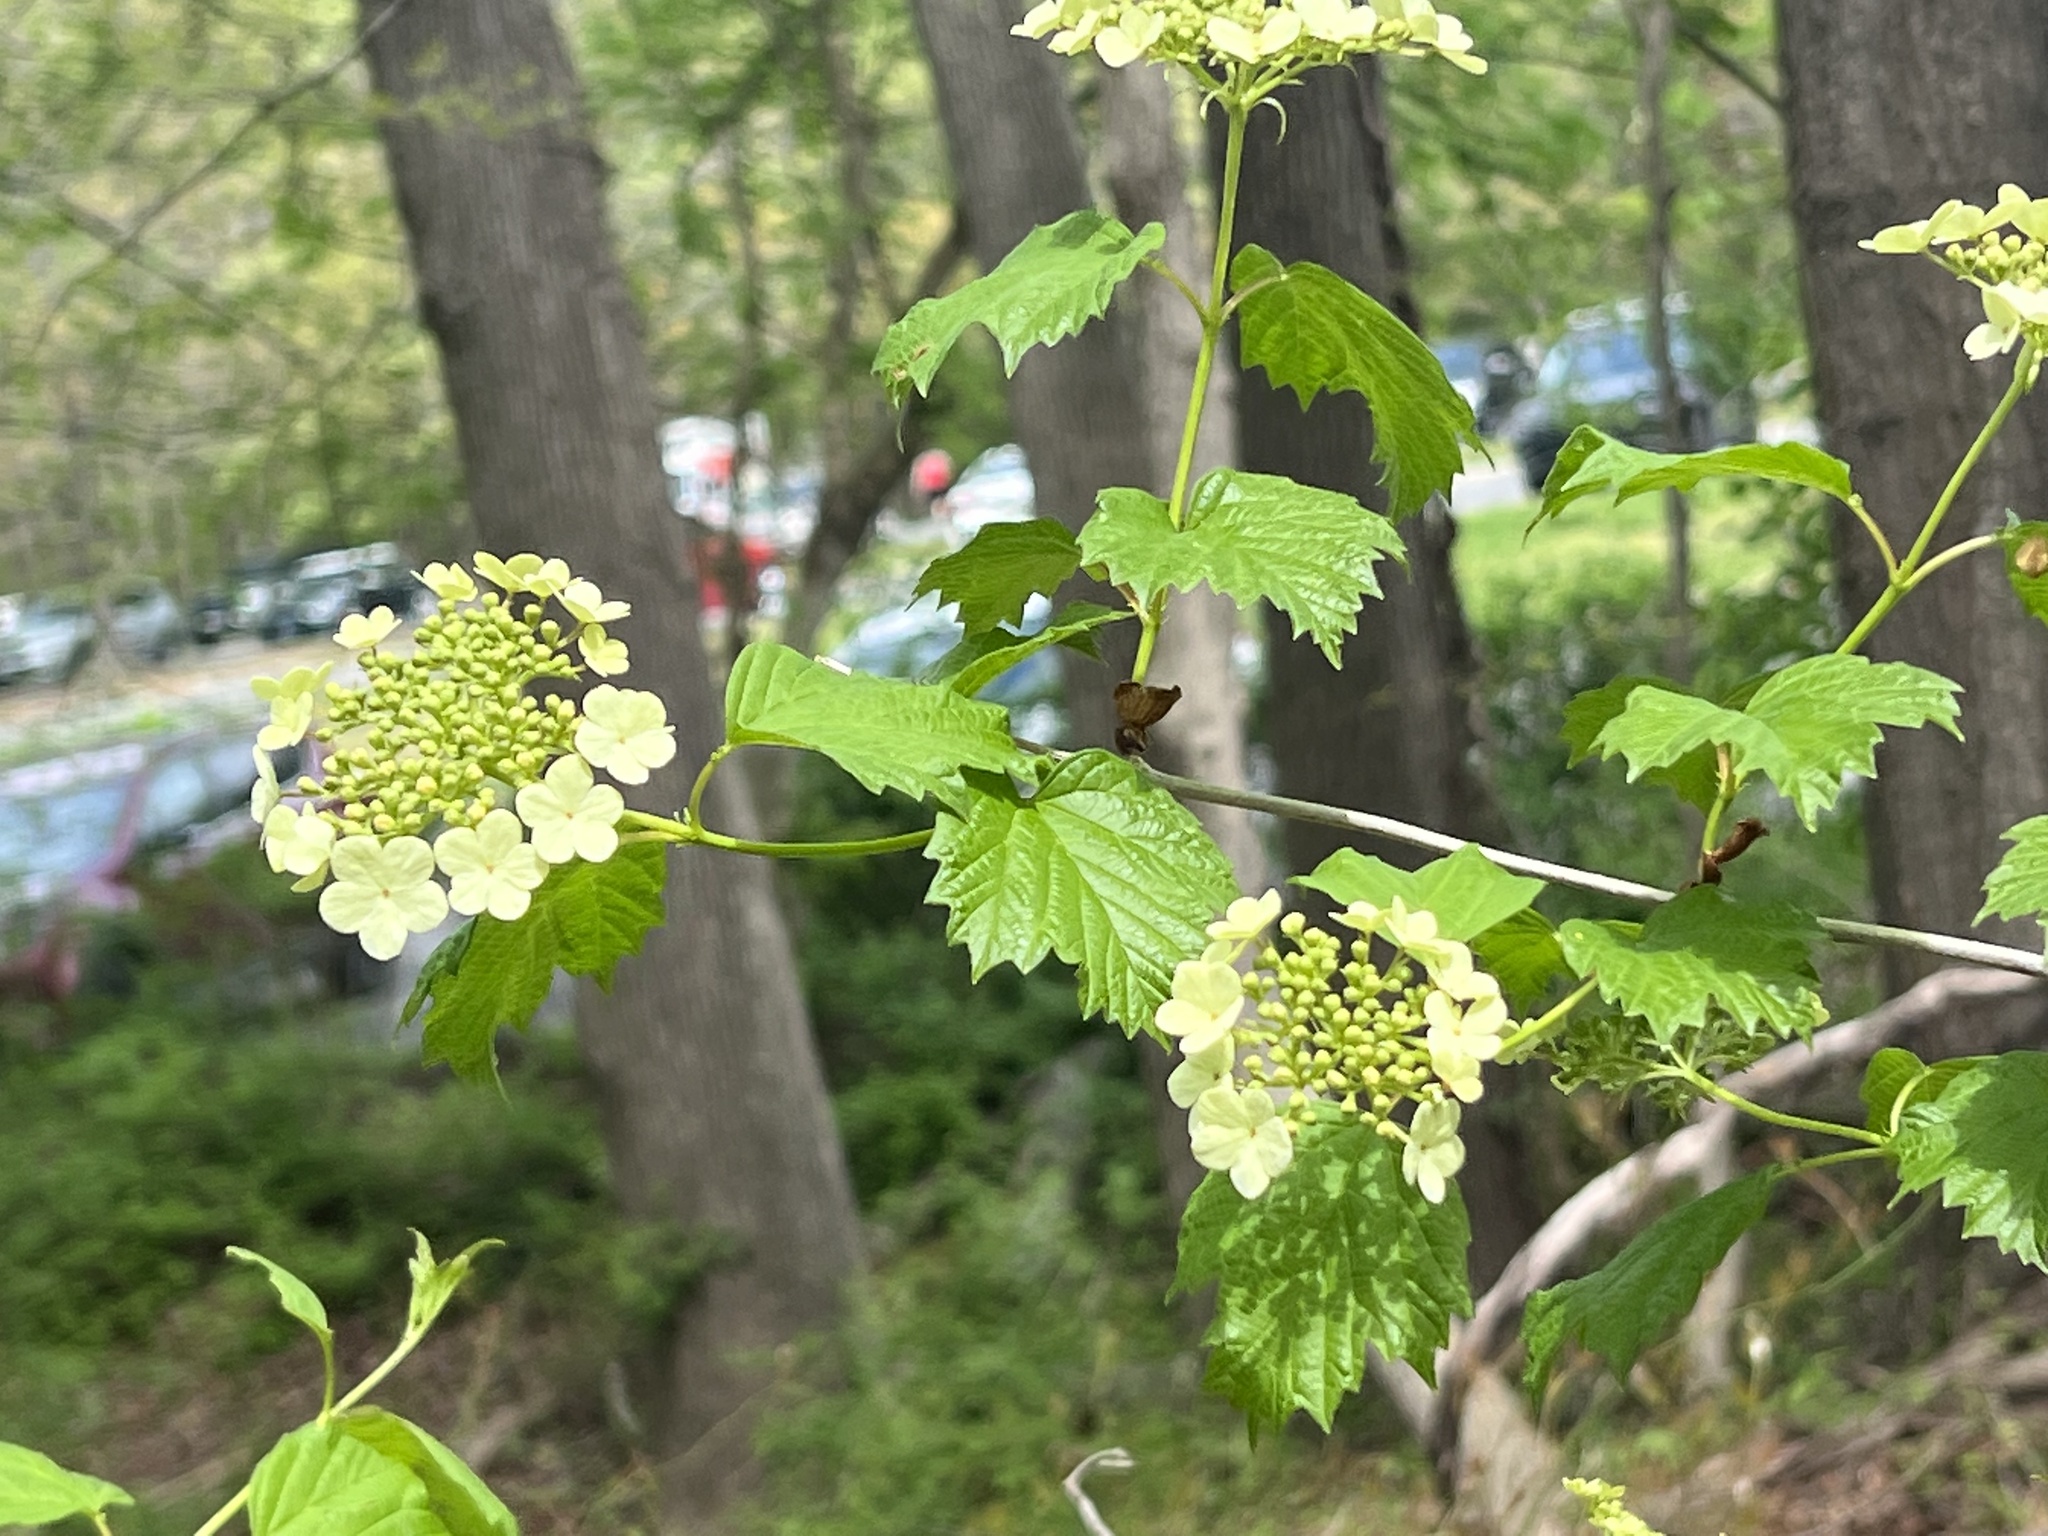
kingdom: Plantae
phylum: Tracheophyta
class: Magnoliopsida
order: Dipsacales
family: Viburnaceae
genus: Viburnum
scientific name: Viburnum opulus
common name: Guelder-rose
